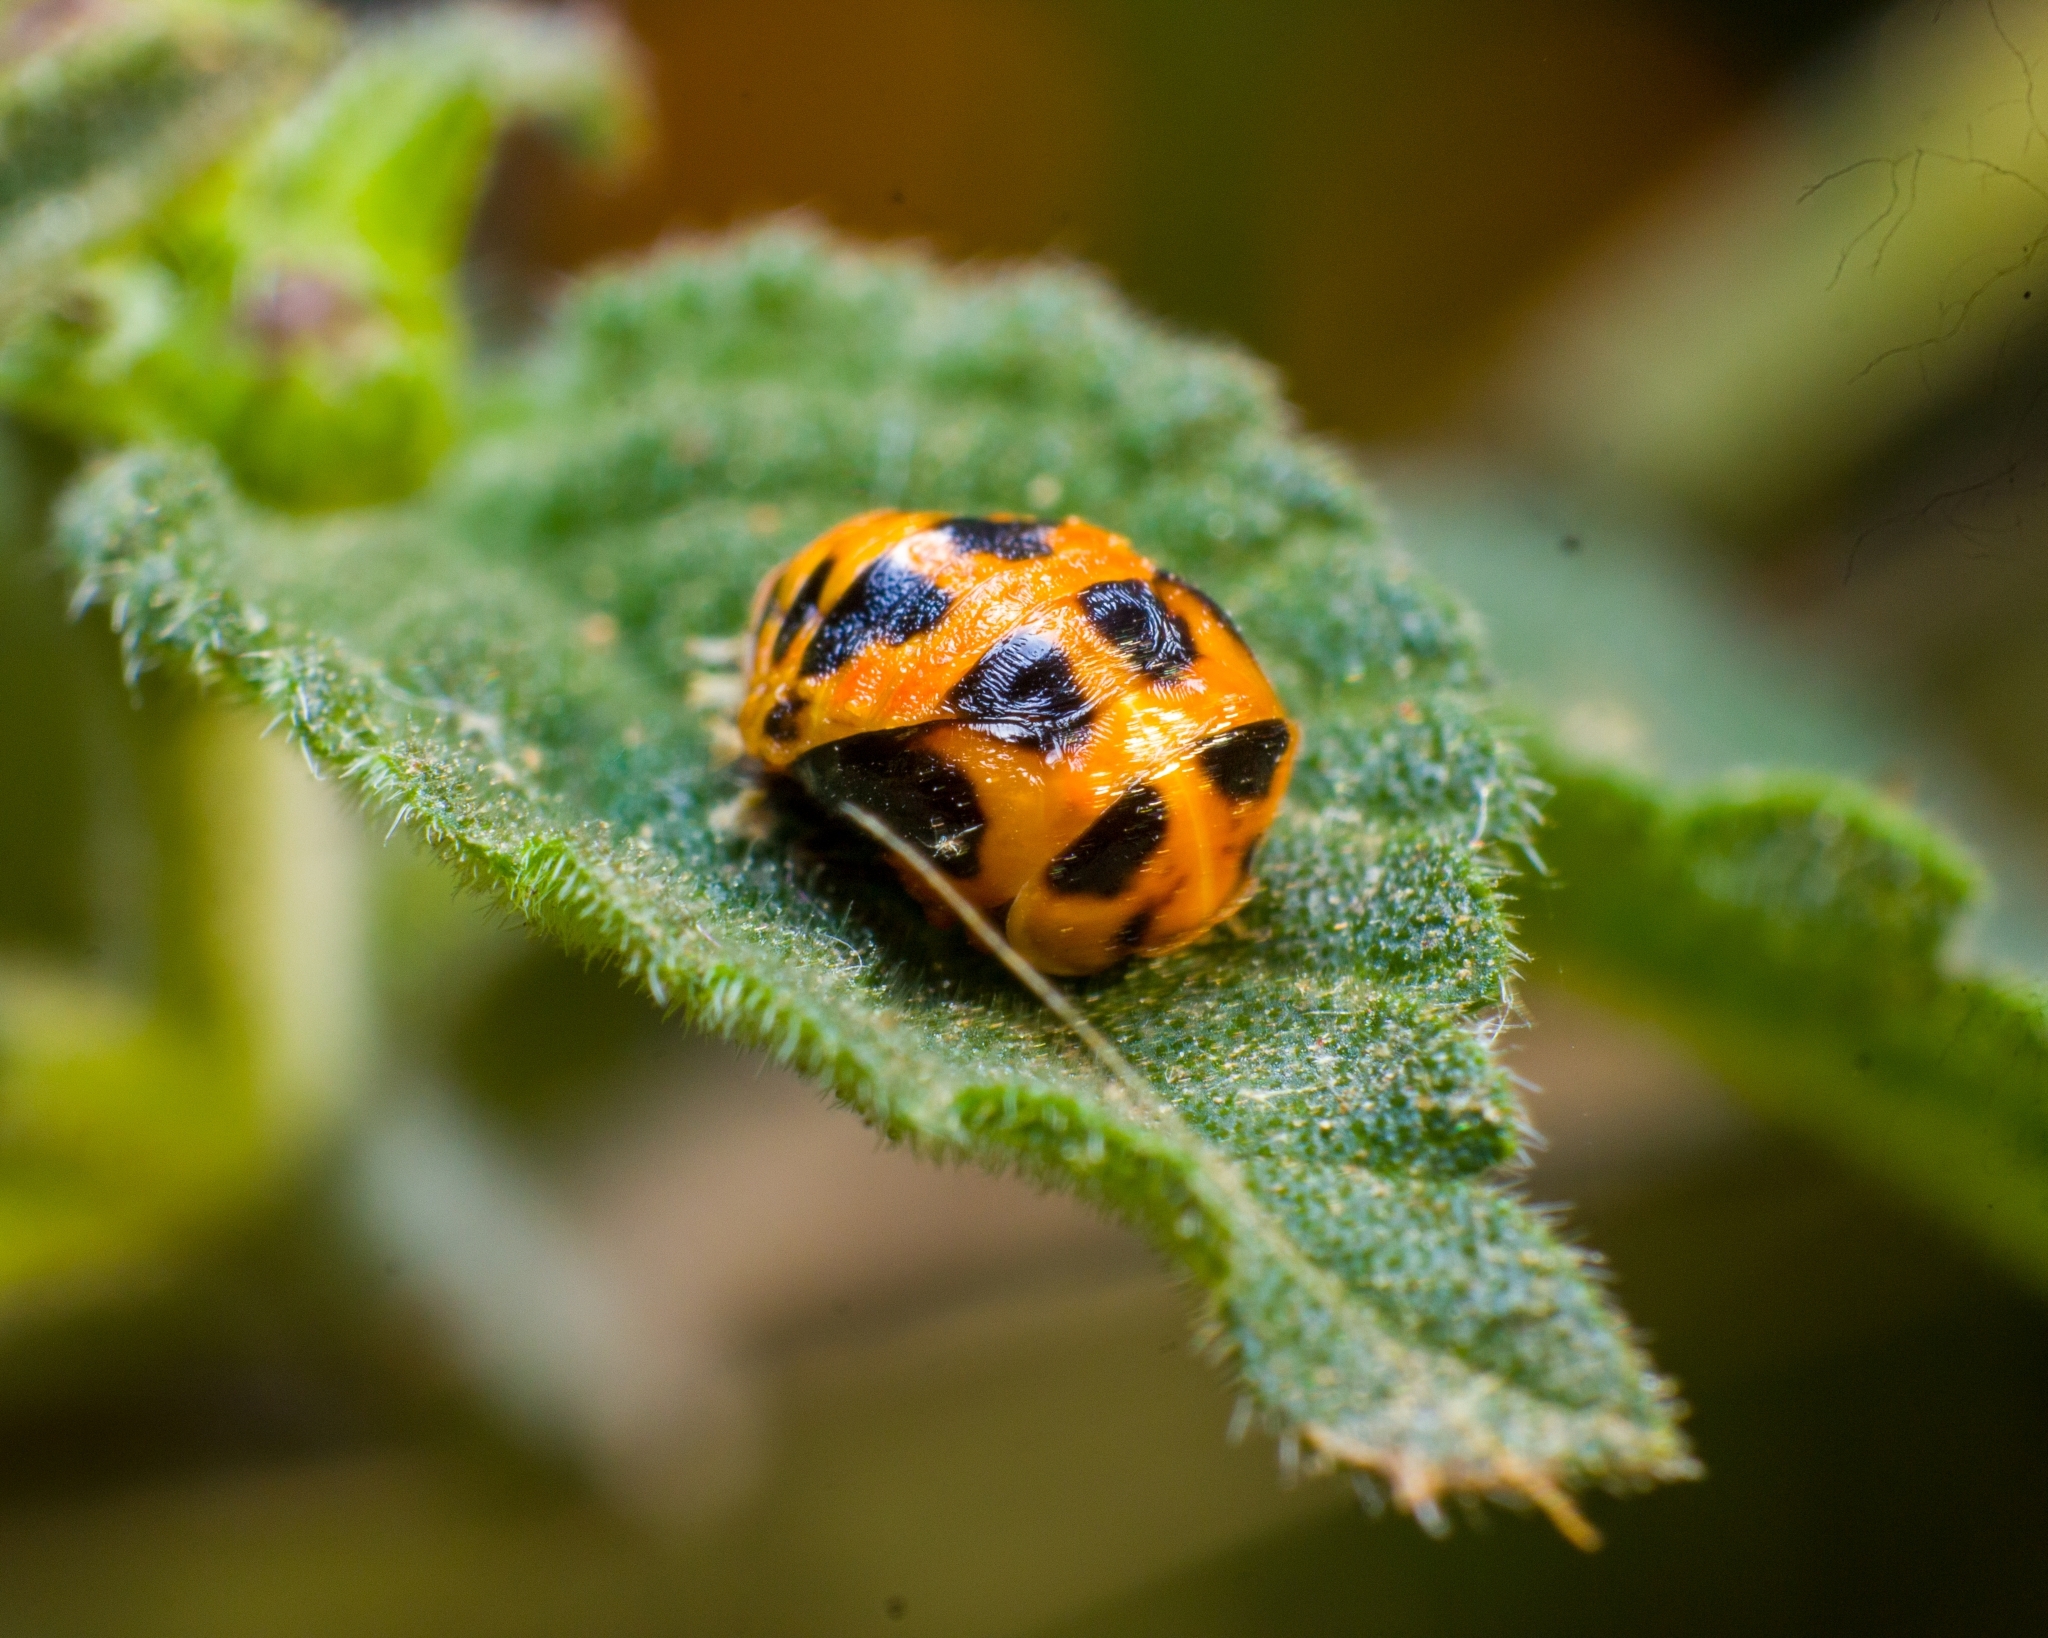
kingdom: Animalia
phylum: Arthropoda
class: Insecta
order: Coleoptera
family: Coccinellidae
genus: Harmonia
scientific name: Harmonia axyridis
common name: Harlequin ladybird
